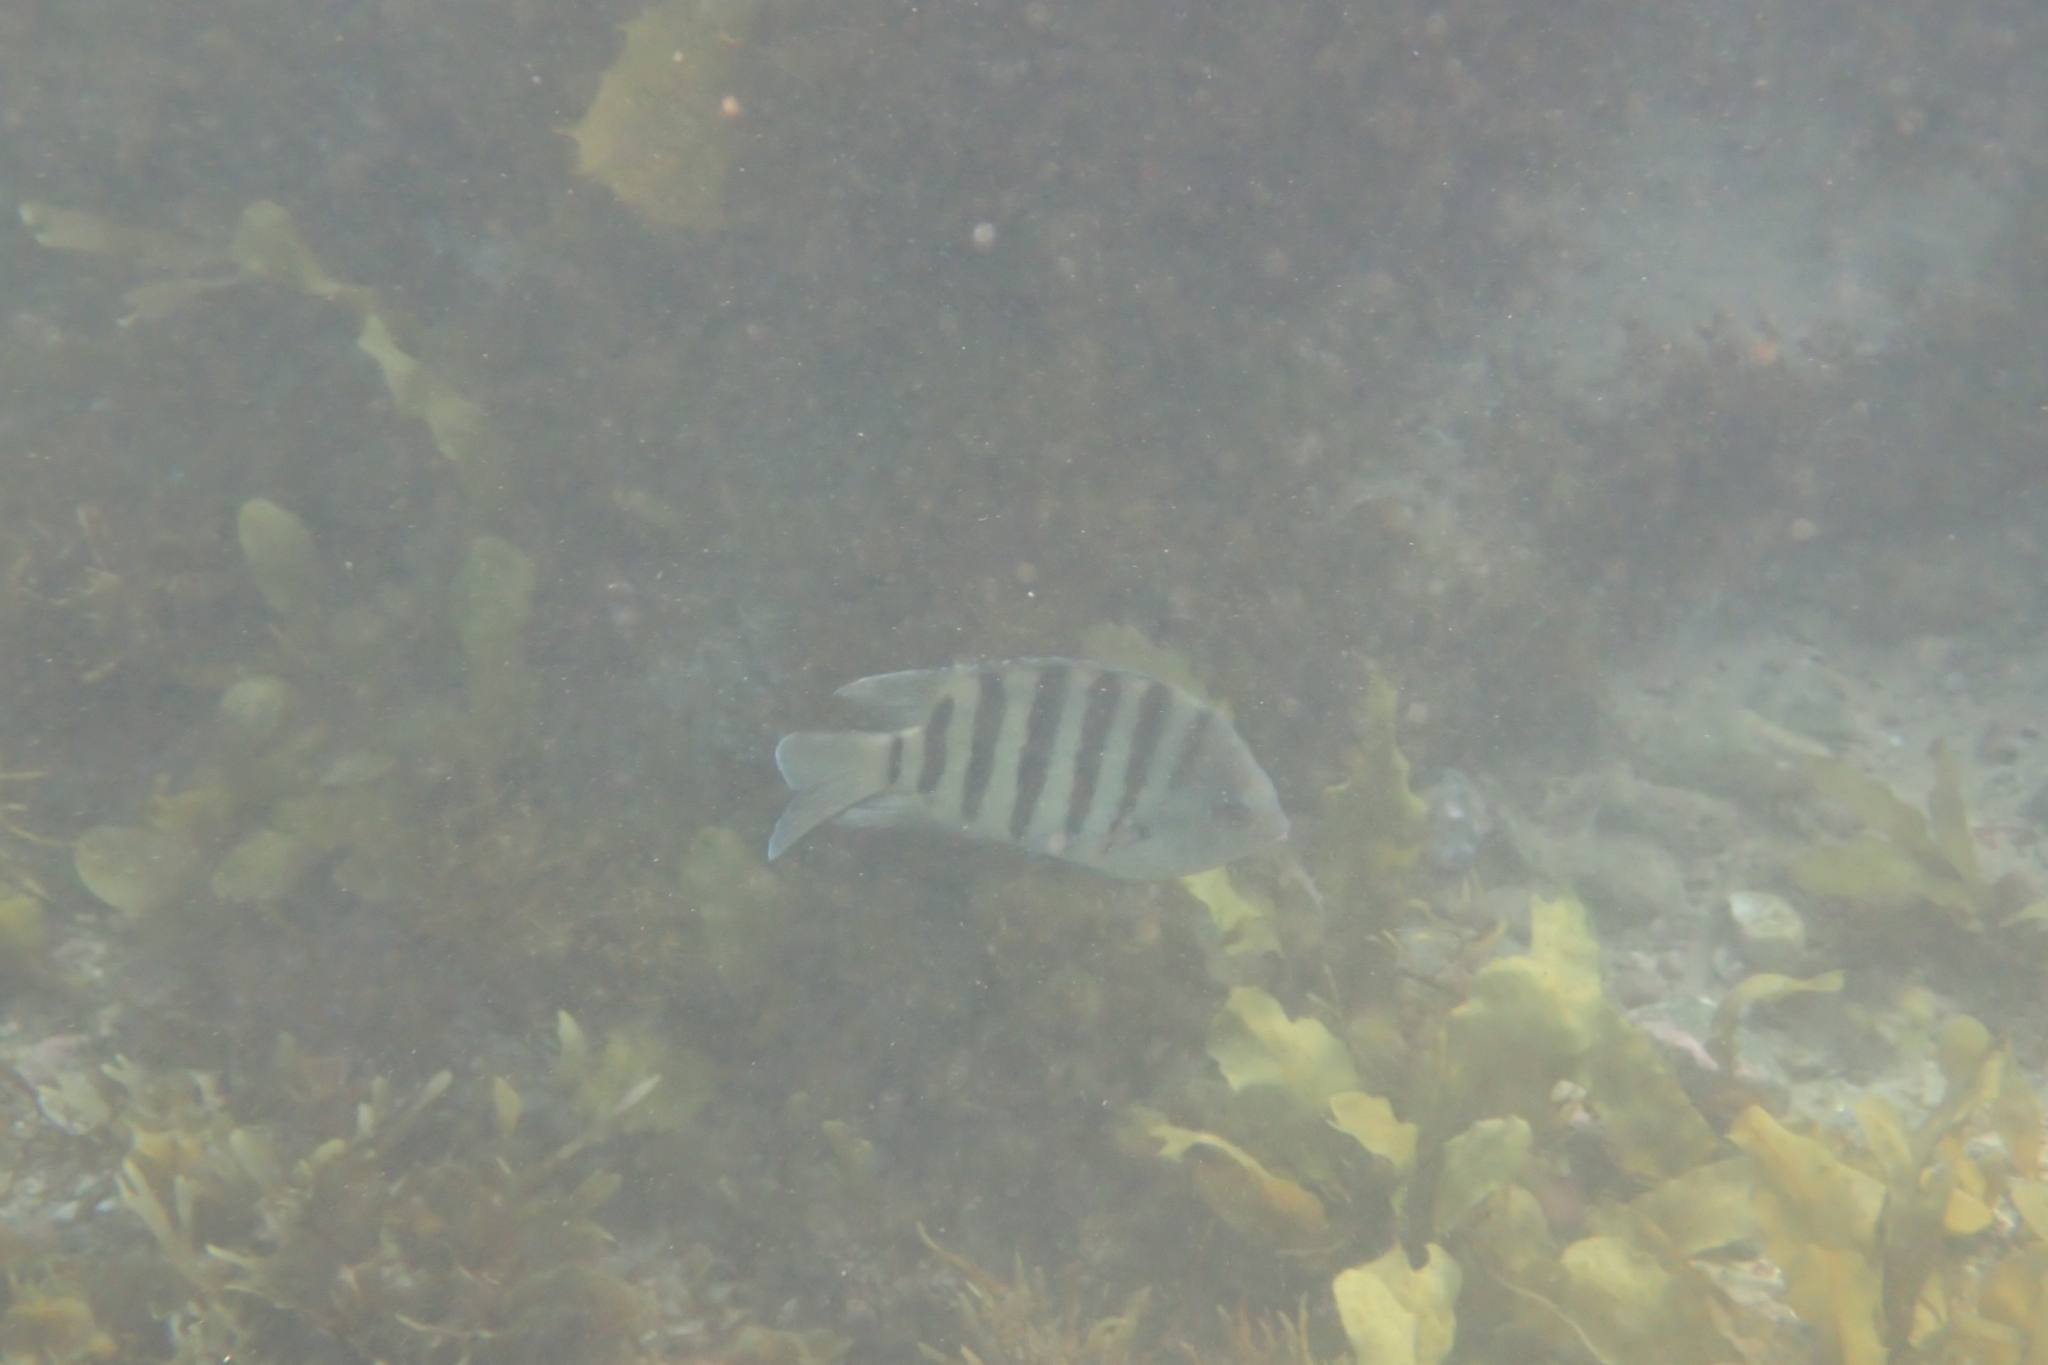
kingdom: Animalia
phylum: Chordata
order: Perciformes
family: Pomacentridae
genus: Abudefduf
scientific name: Abudefduf bengalensis
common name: Bengal sergeant
